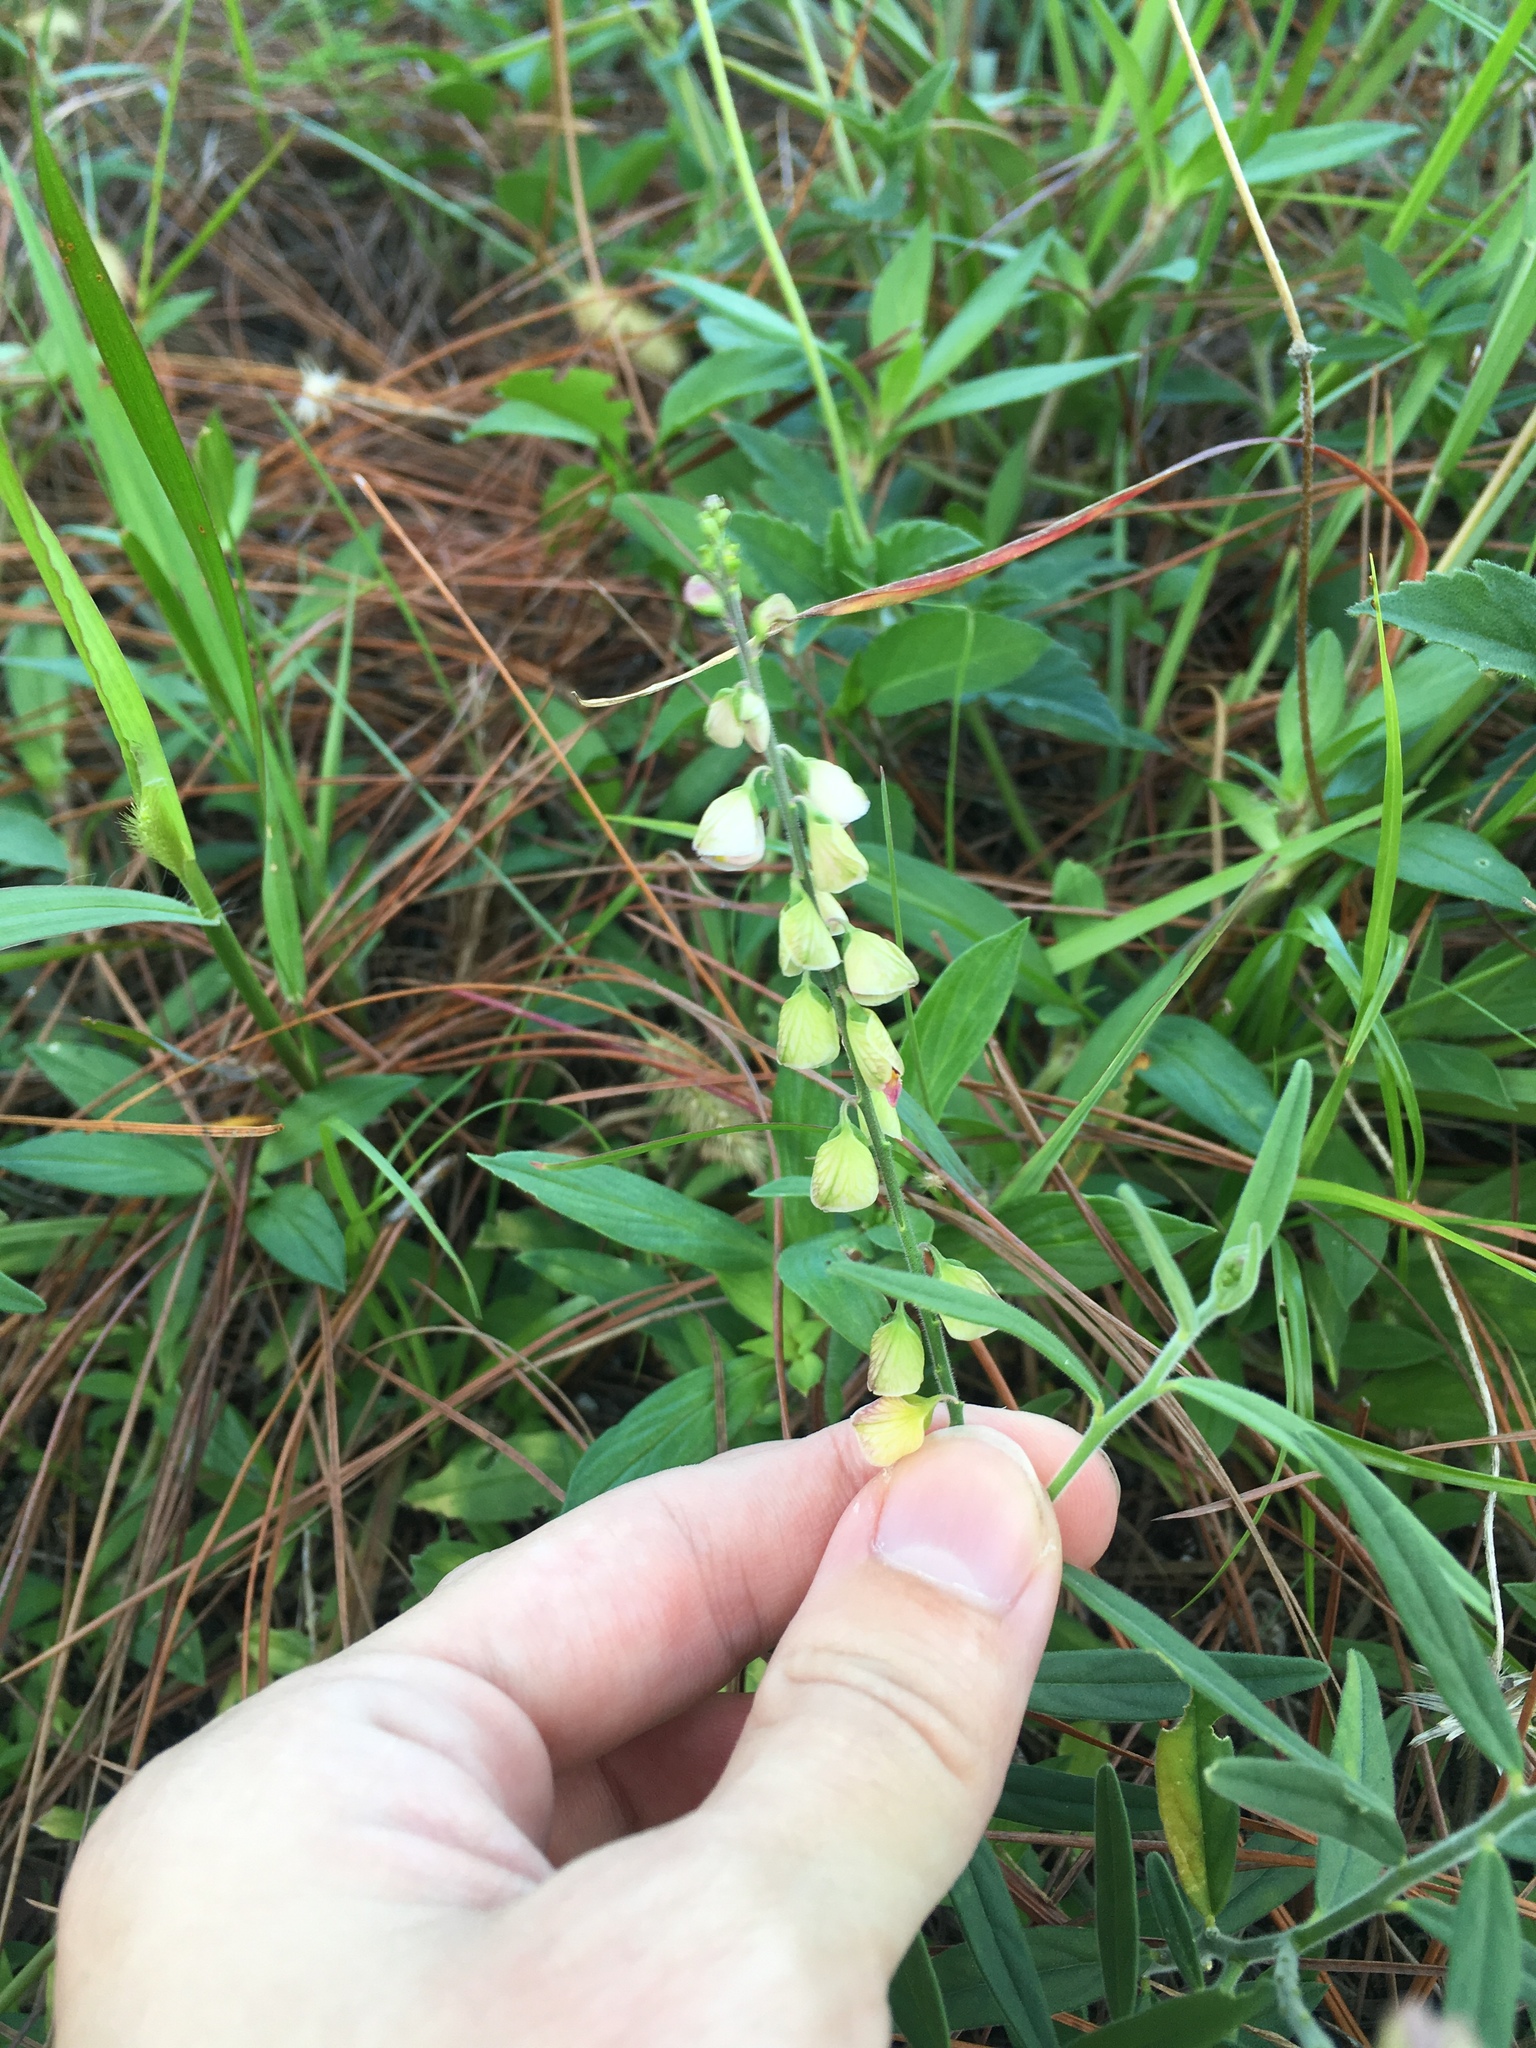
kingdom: Plantae
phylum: Tracheophyta
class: Magnoliopsida
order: Fabales
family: Polygalaceae
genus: Asemeia
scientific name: Asemeia grandiflora
